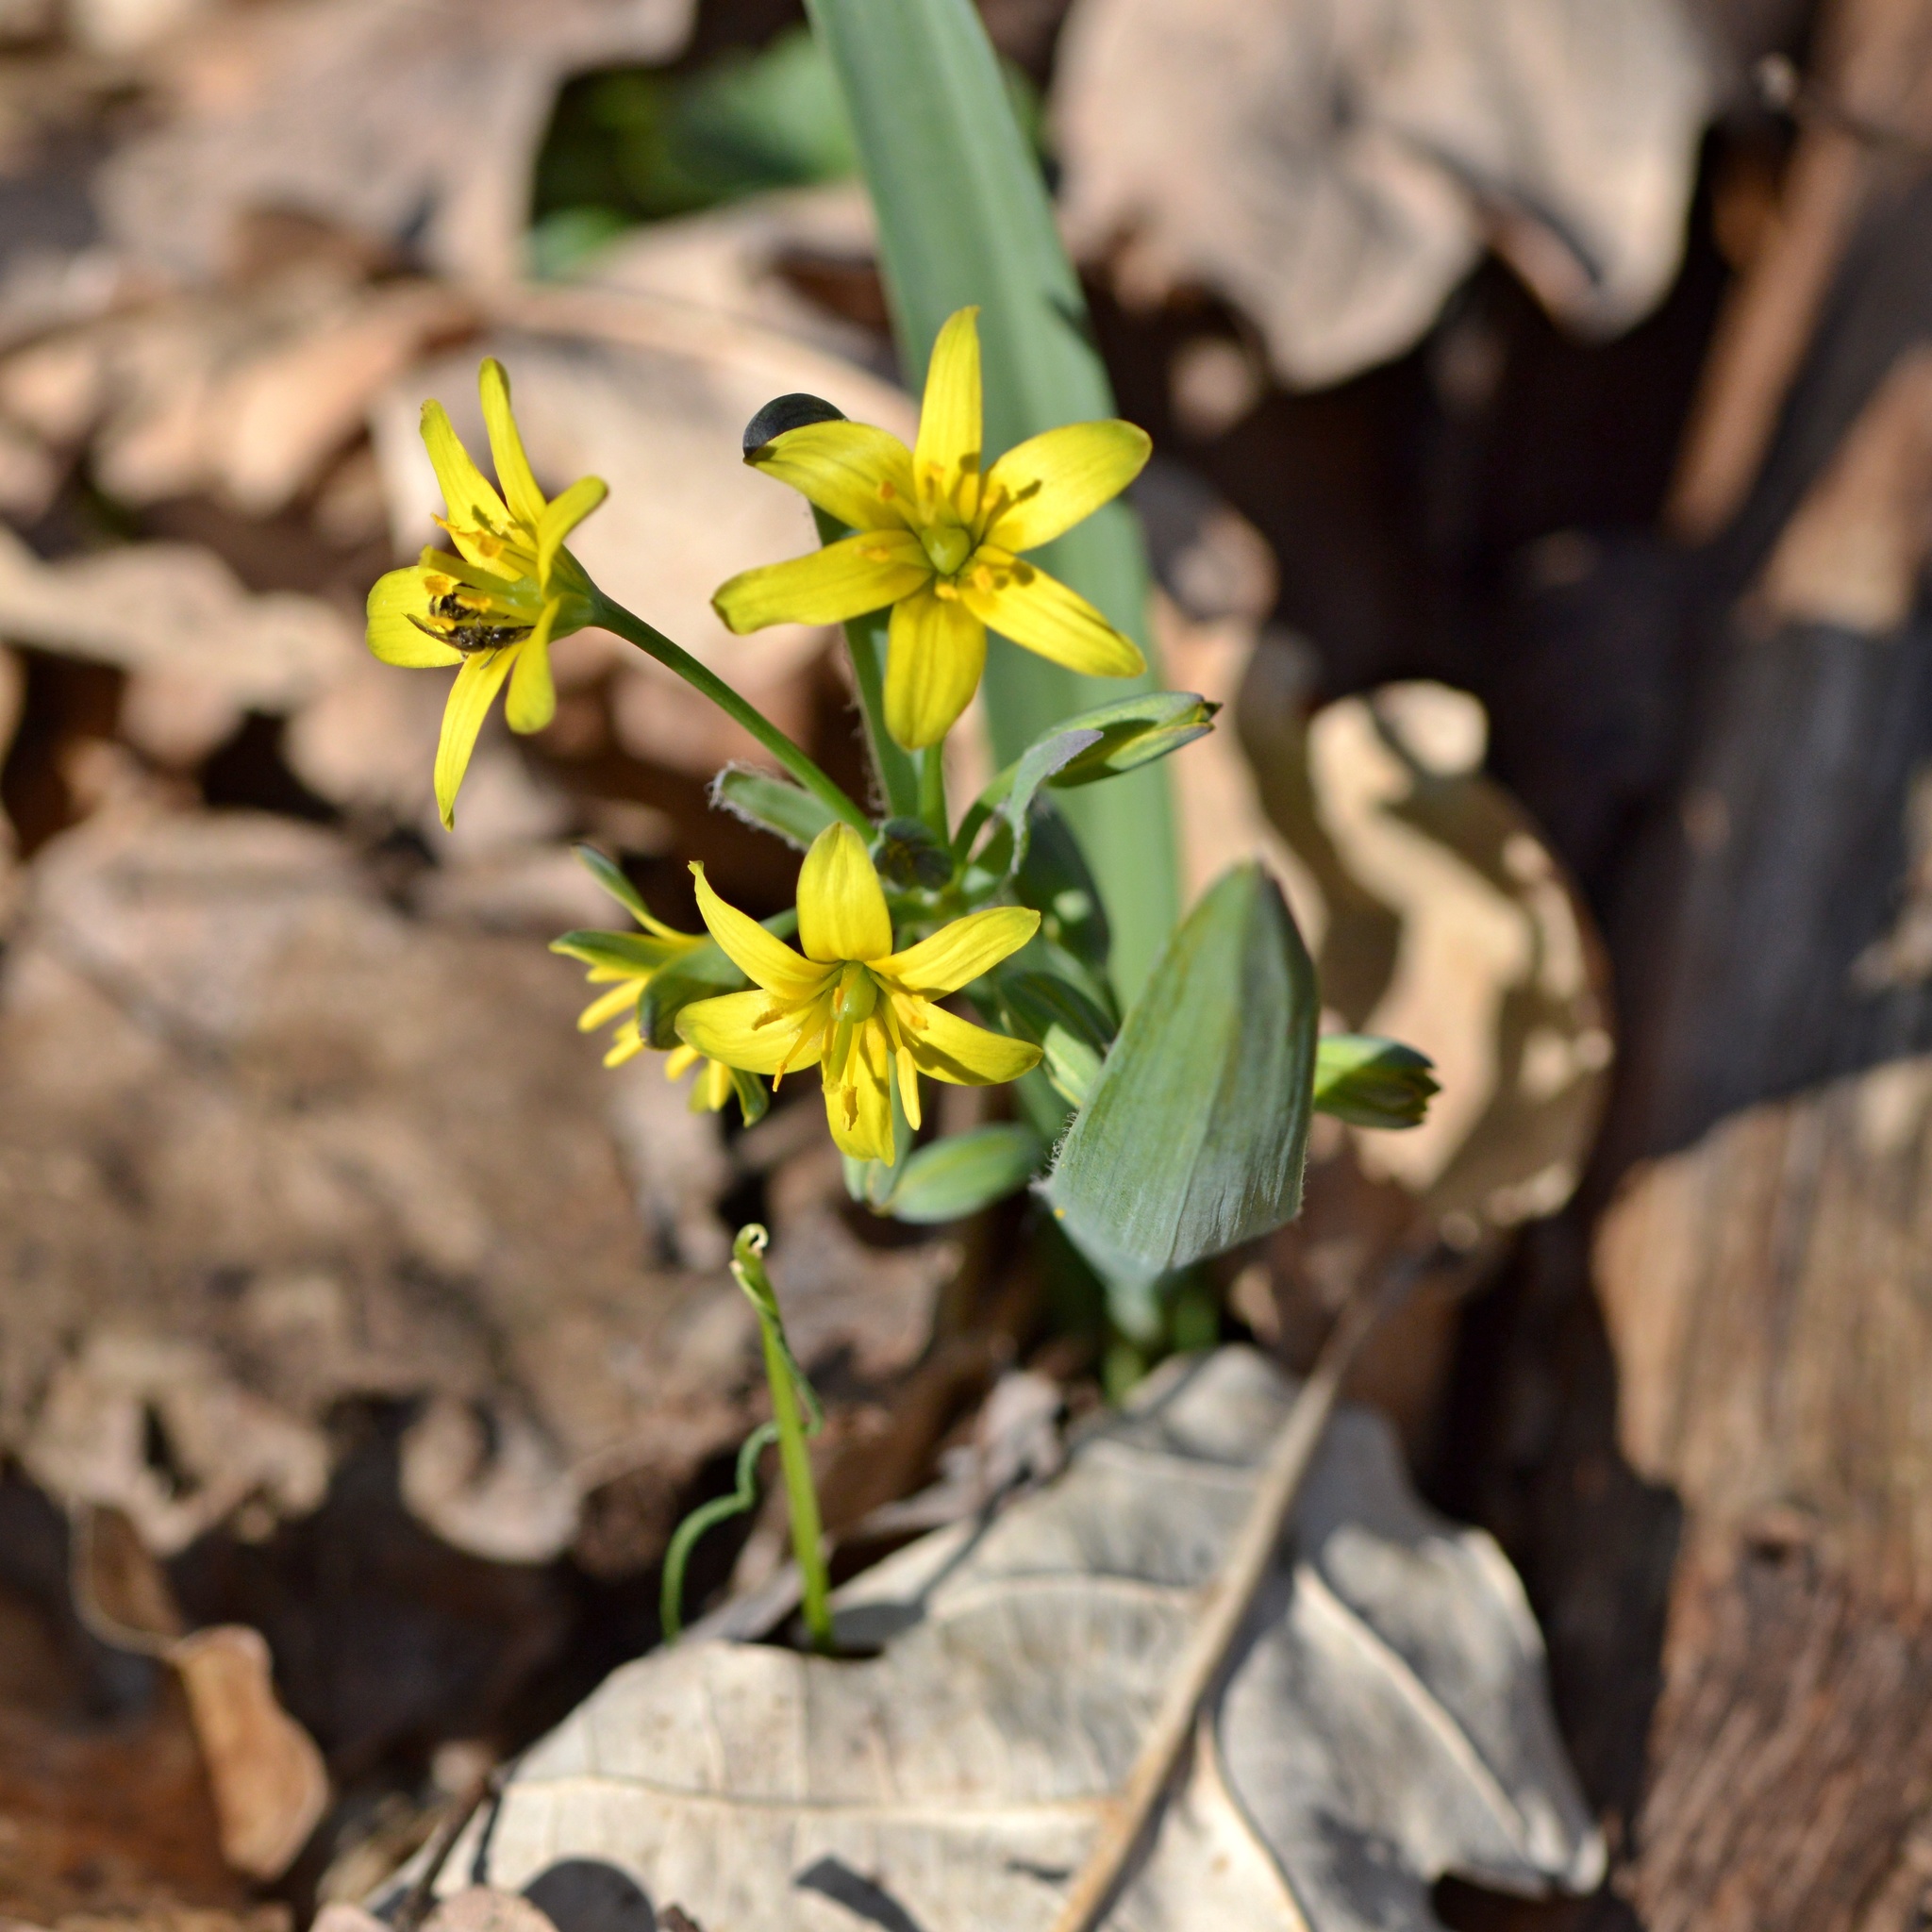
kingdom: Plantae
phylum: Tracheophyta
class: Liliopsida
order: Liliales
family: Liliaceae
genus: Gagea
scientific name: Gagea lutea
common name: Yellow star-of-bethlehem
